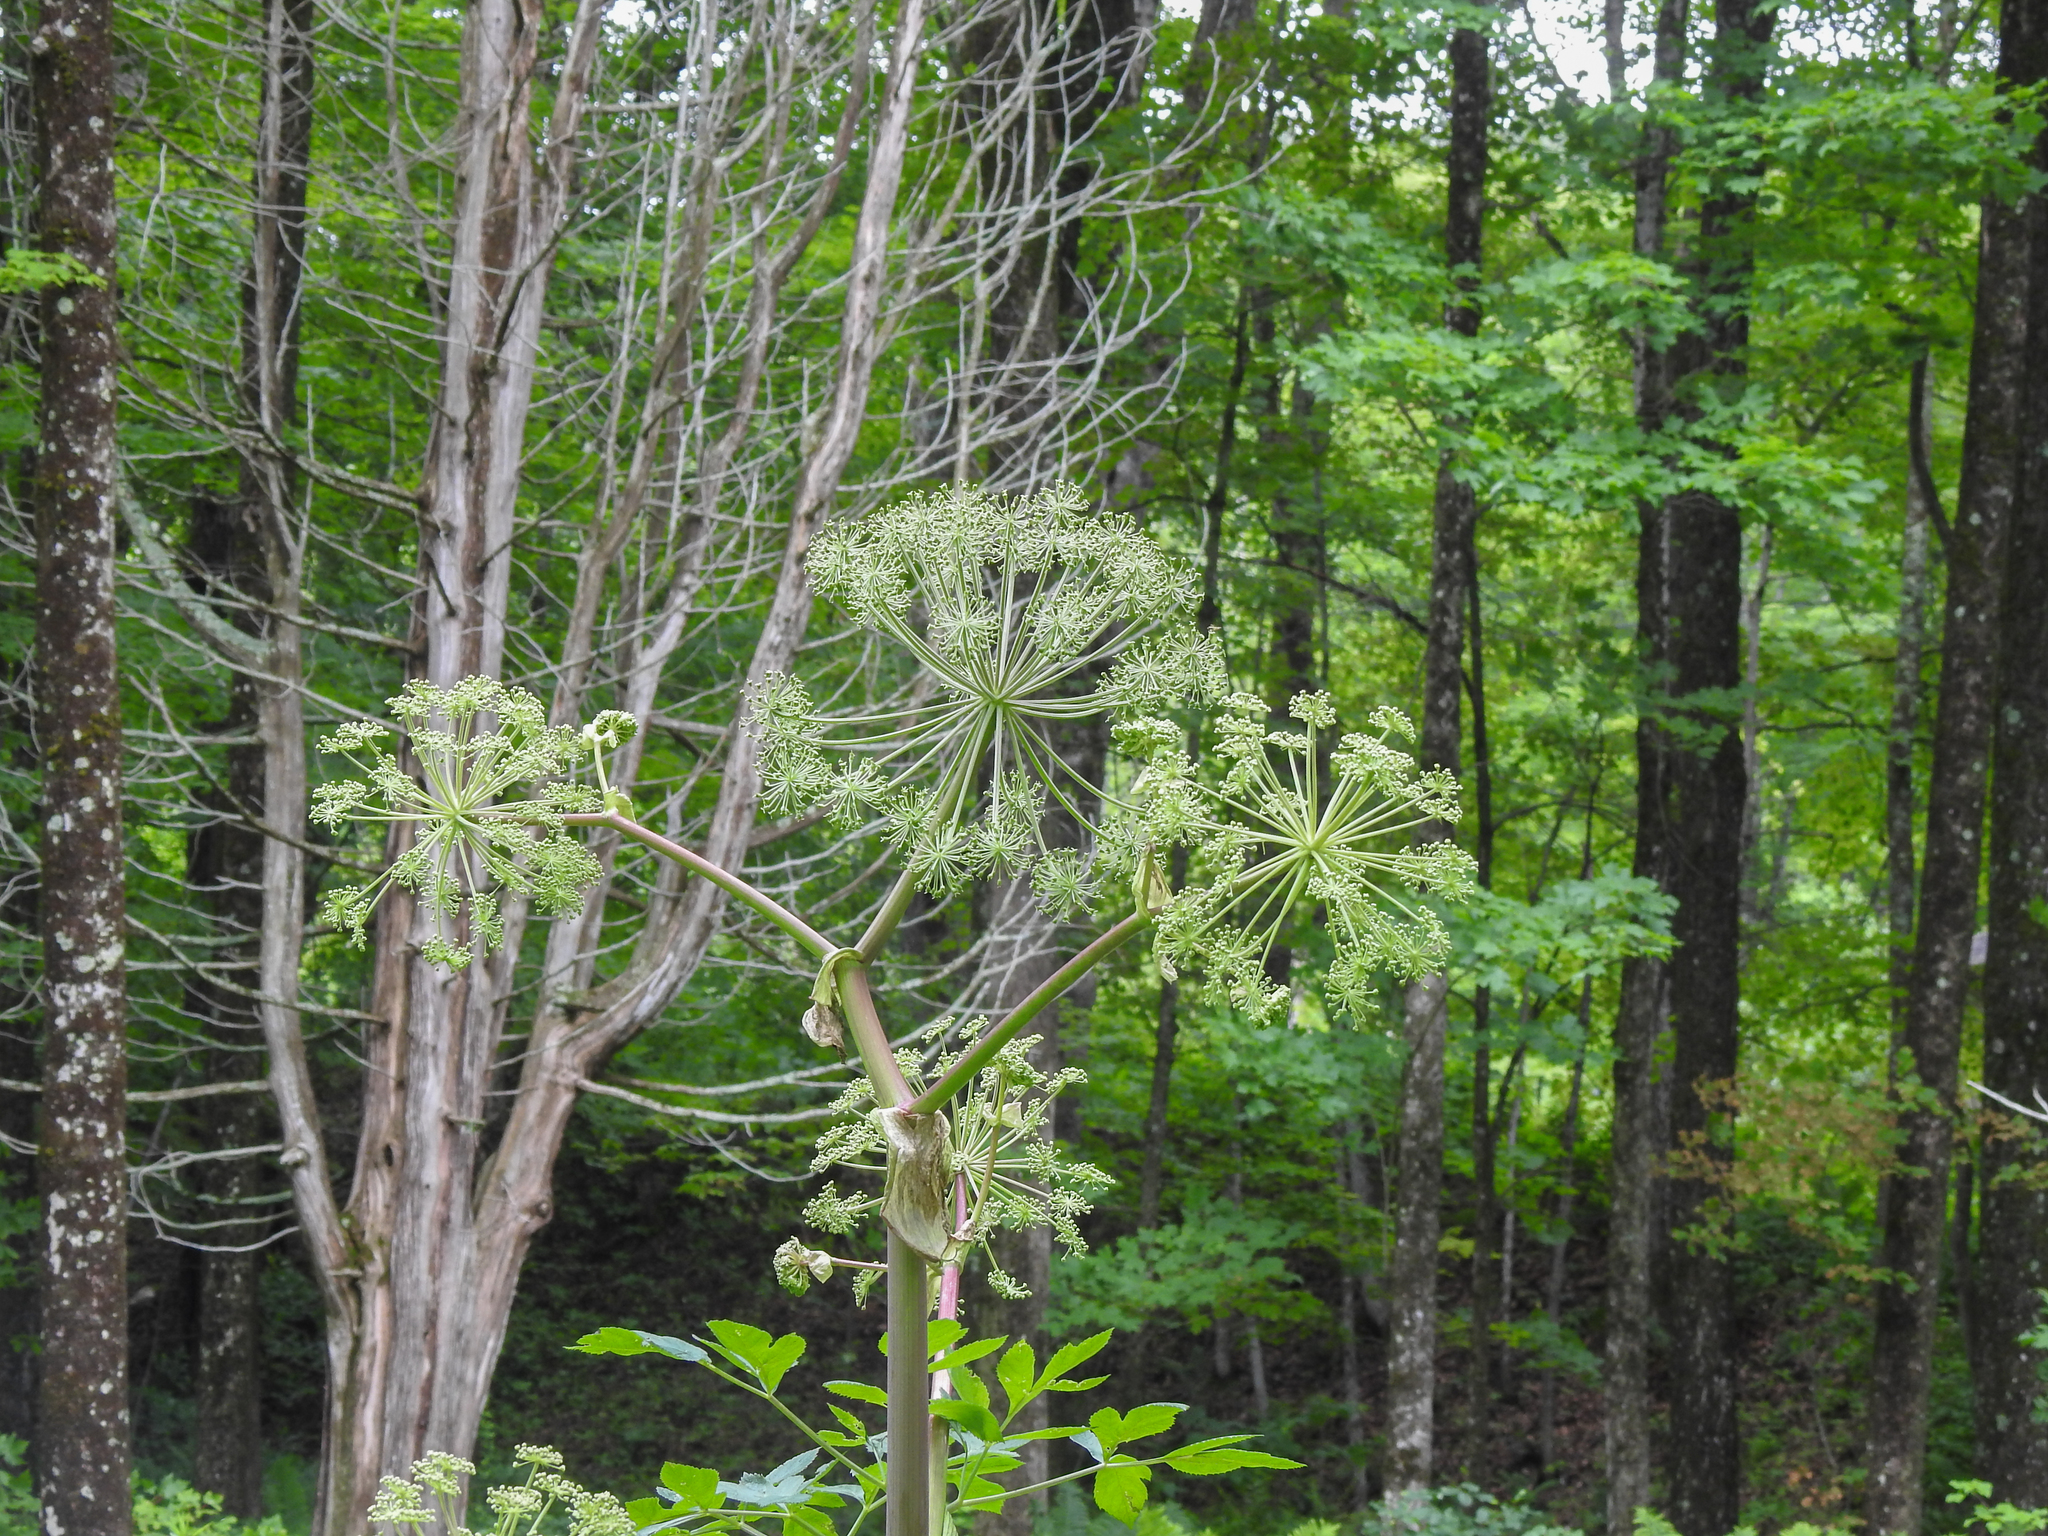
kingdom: Plantae
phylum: Tracheophyta
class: Magnoliopsida
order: Apiales
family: Apiaceae
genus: Angelica
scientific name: Angelica atropurpurea
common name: Great angelica
